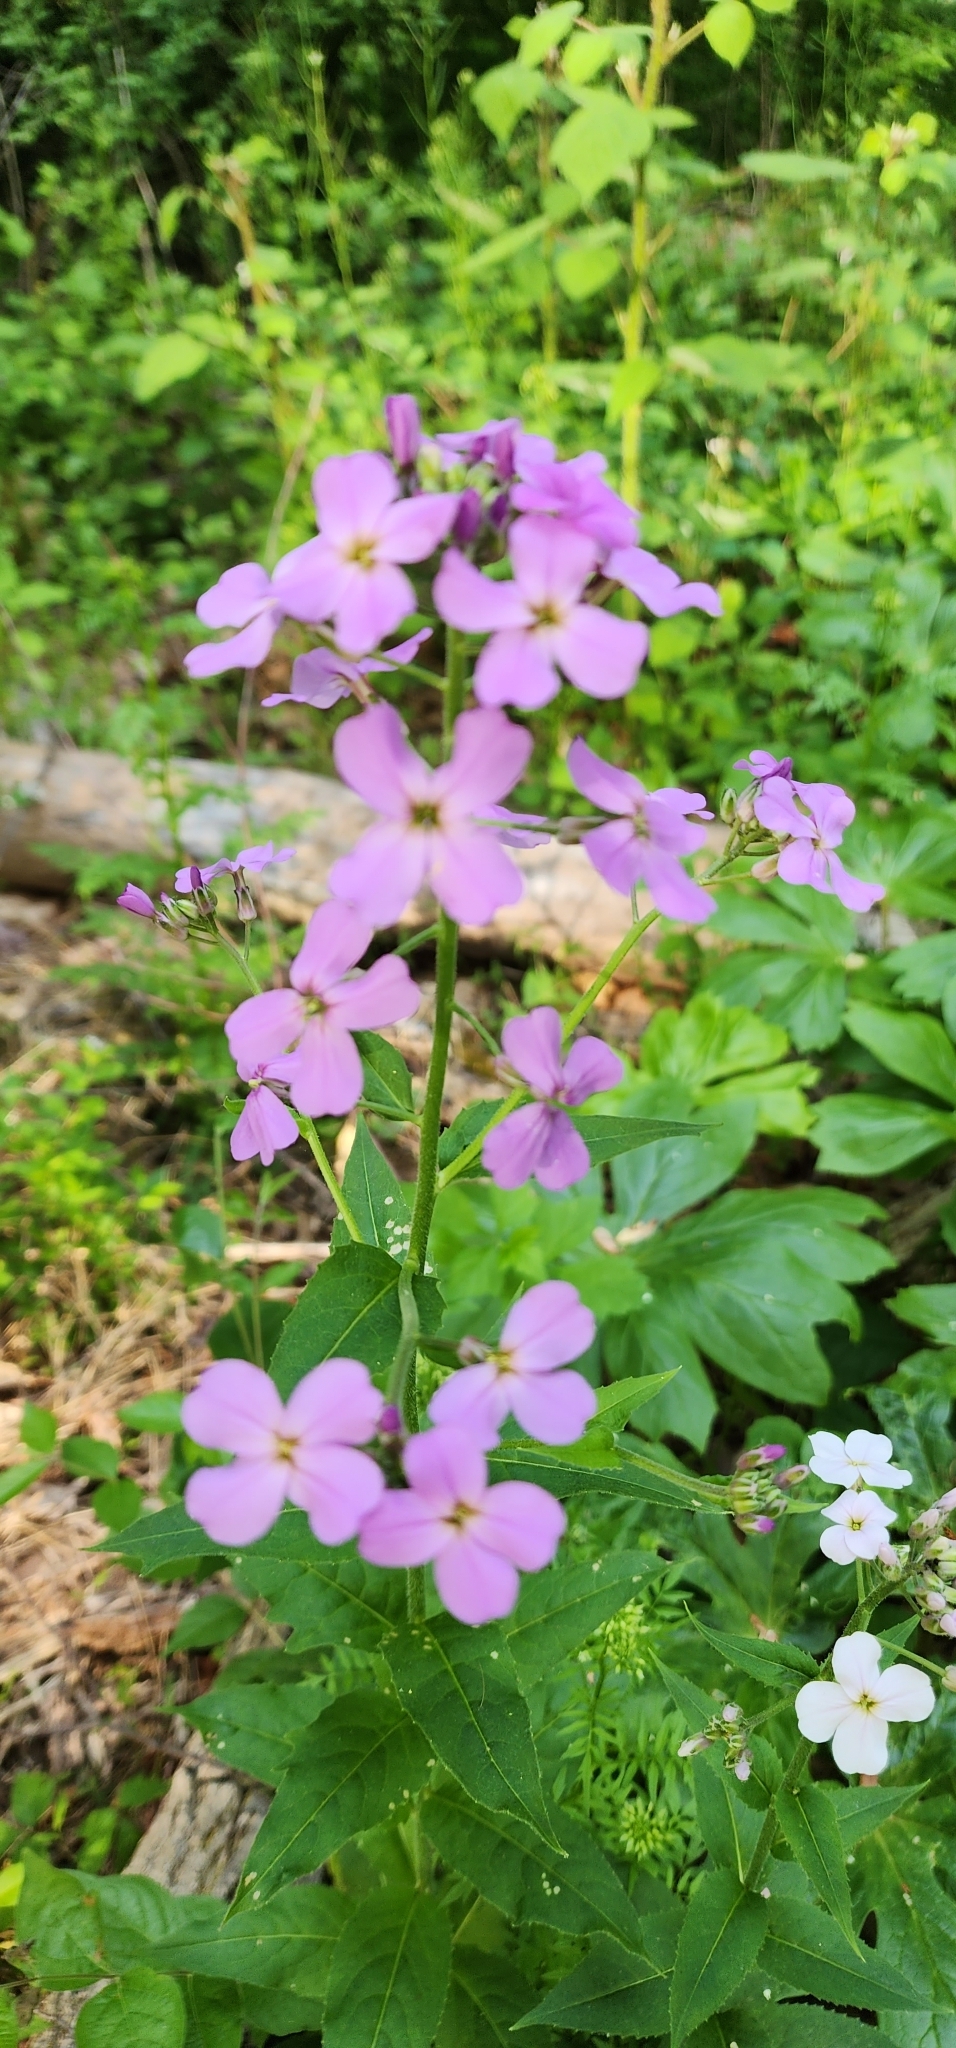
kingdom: Plantae
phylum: Tracheophyta
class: Magnoliopsida
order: Brassicales
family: Brassicaceae
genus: Hesperis
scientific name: Hesperis matronalis
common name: Dame's-violet
